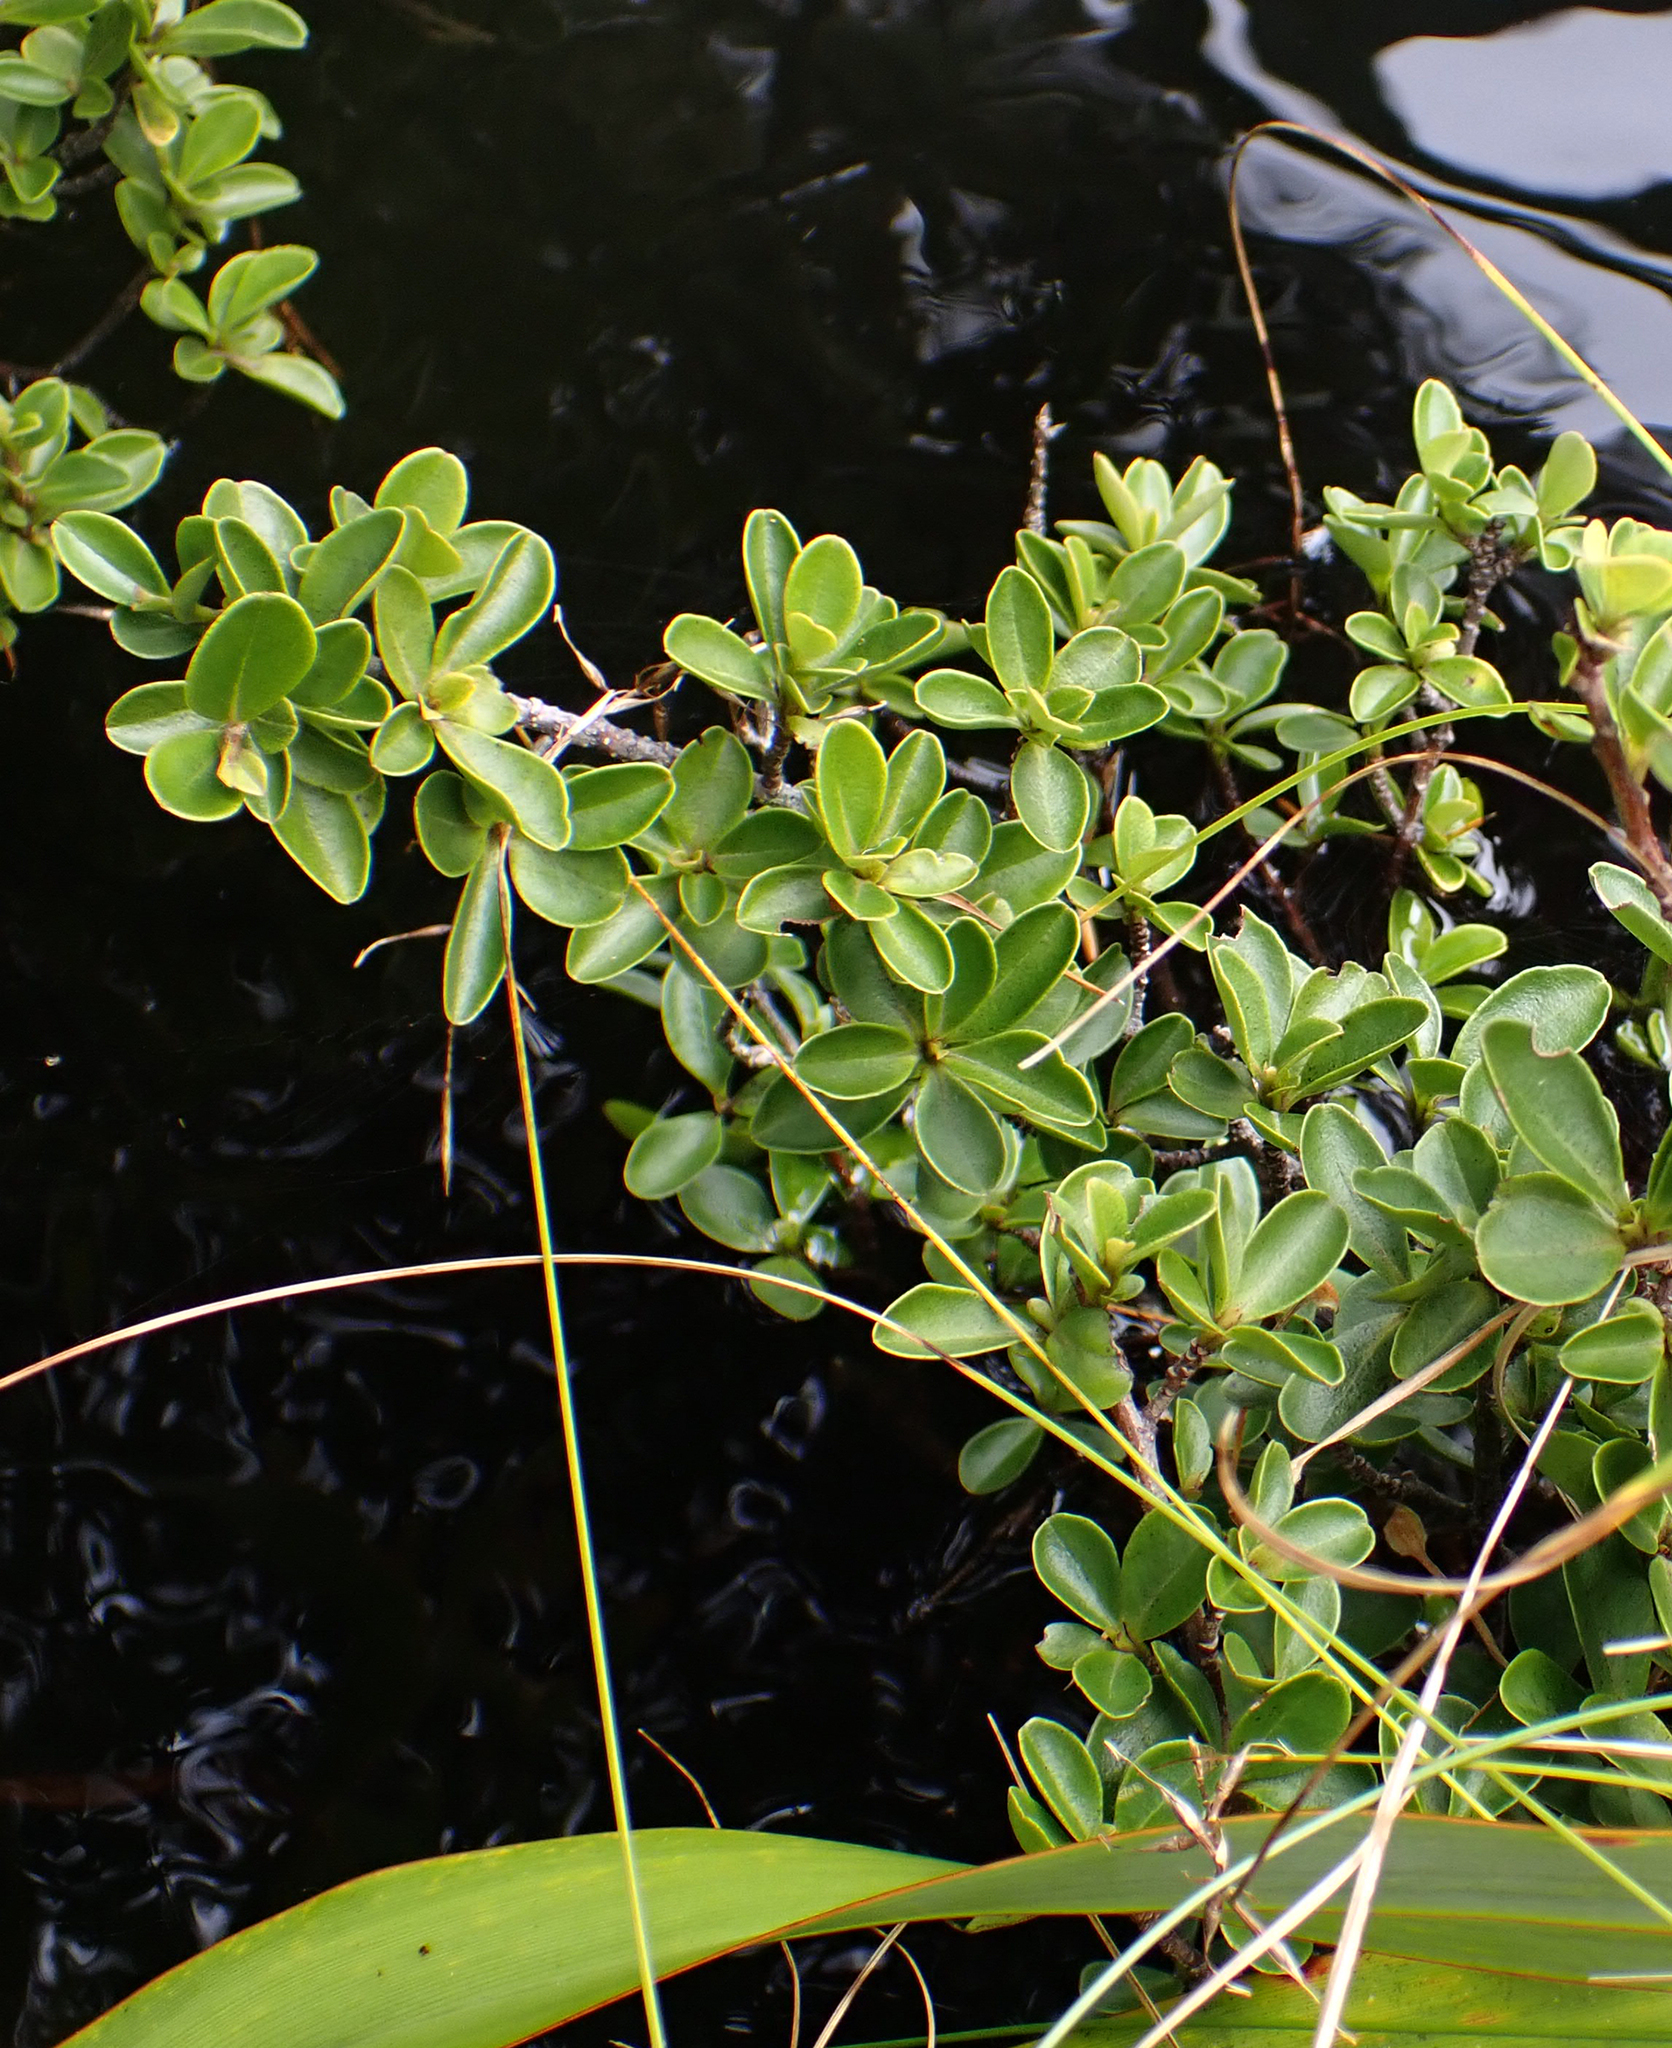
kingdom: Plantae
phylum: Tracheophyta
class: Magnoliopsida
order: Ericales
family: Primulaceae
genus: Myrsine
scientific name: Myrsine coxii
